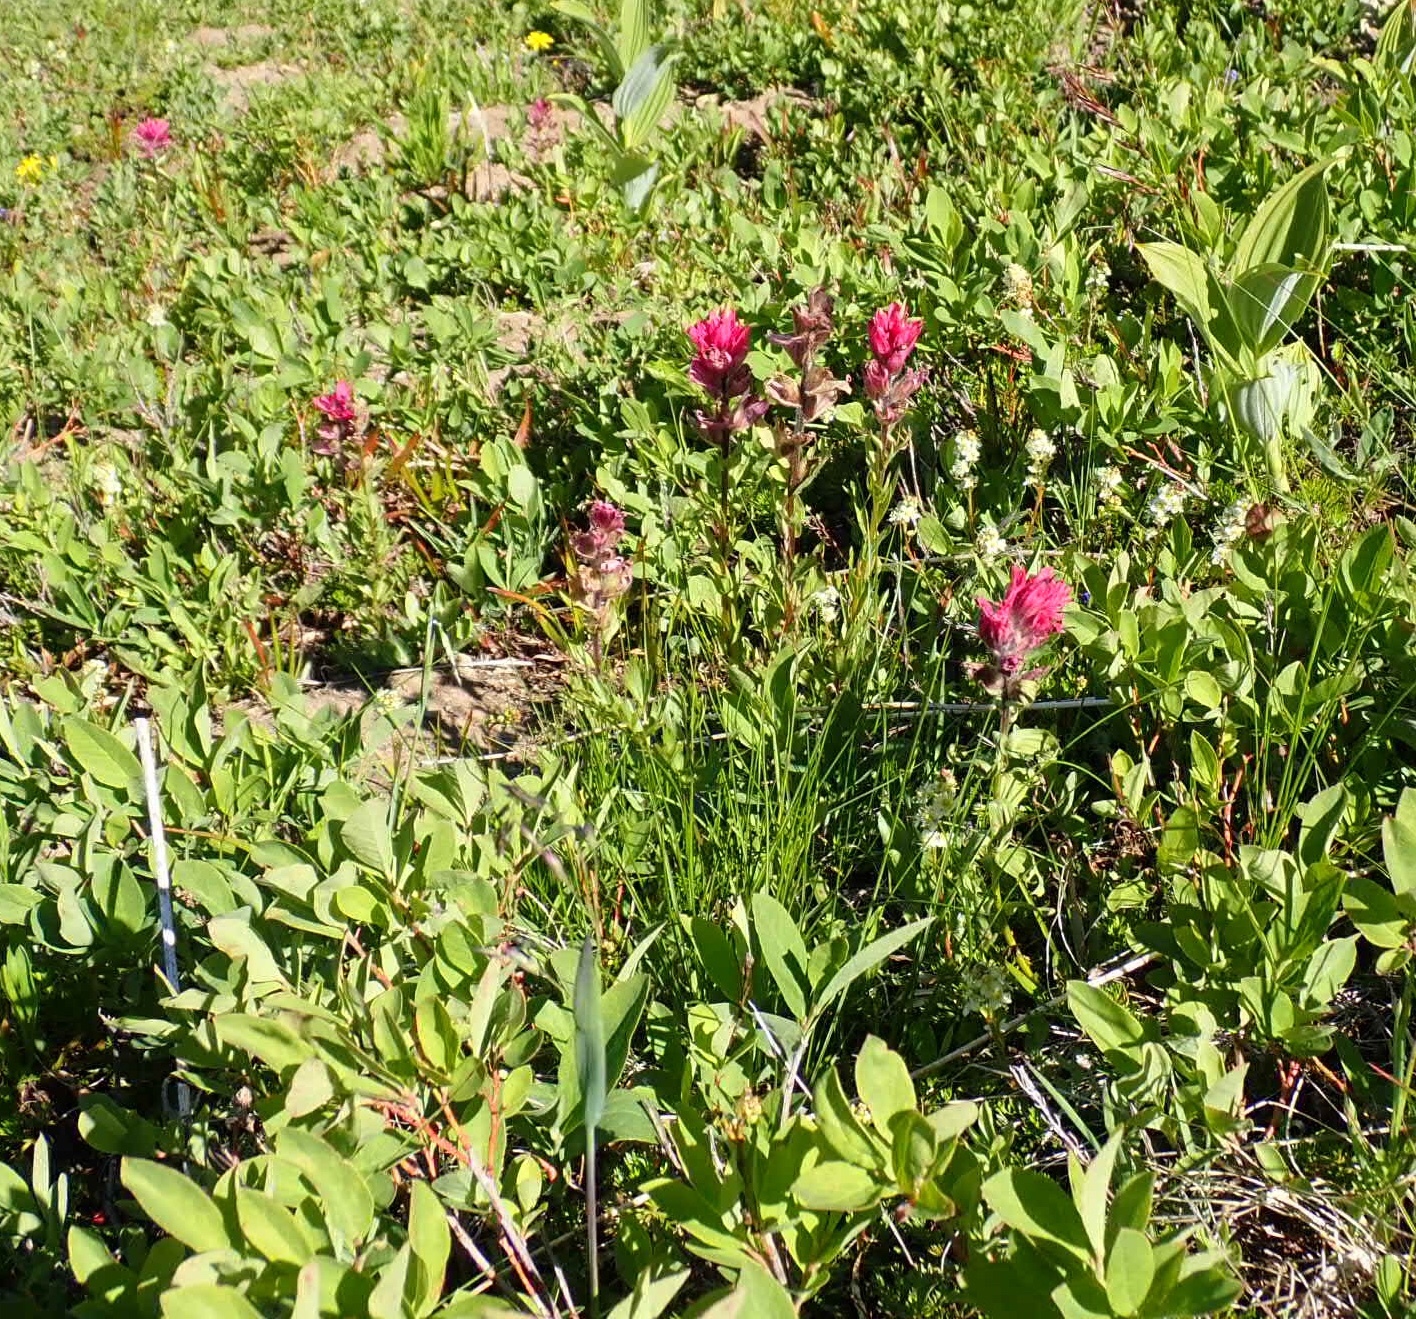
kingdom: Plantae
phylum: Tracheophyta
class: Magnoliopsida
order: Lamiales
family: Orobanchaceae
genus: Castilleja
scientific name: Castilleja parviflora
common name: Mountain paintbrush
